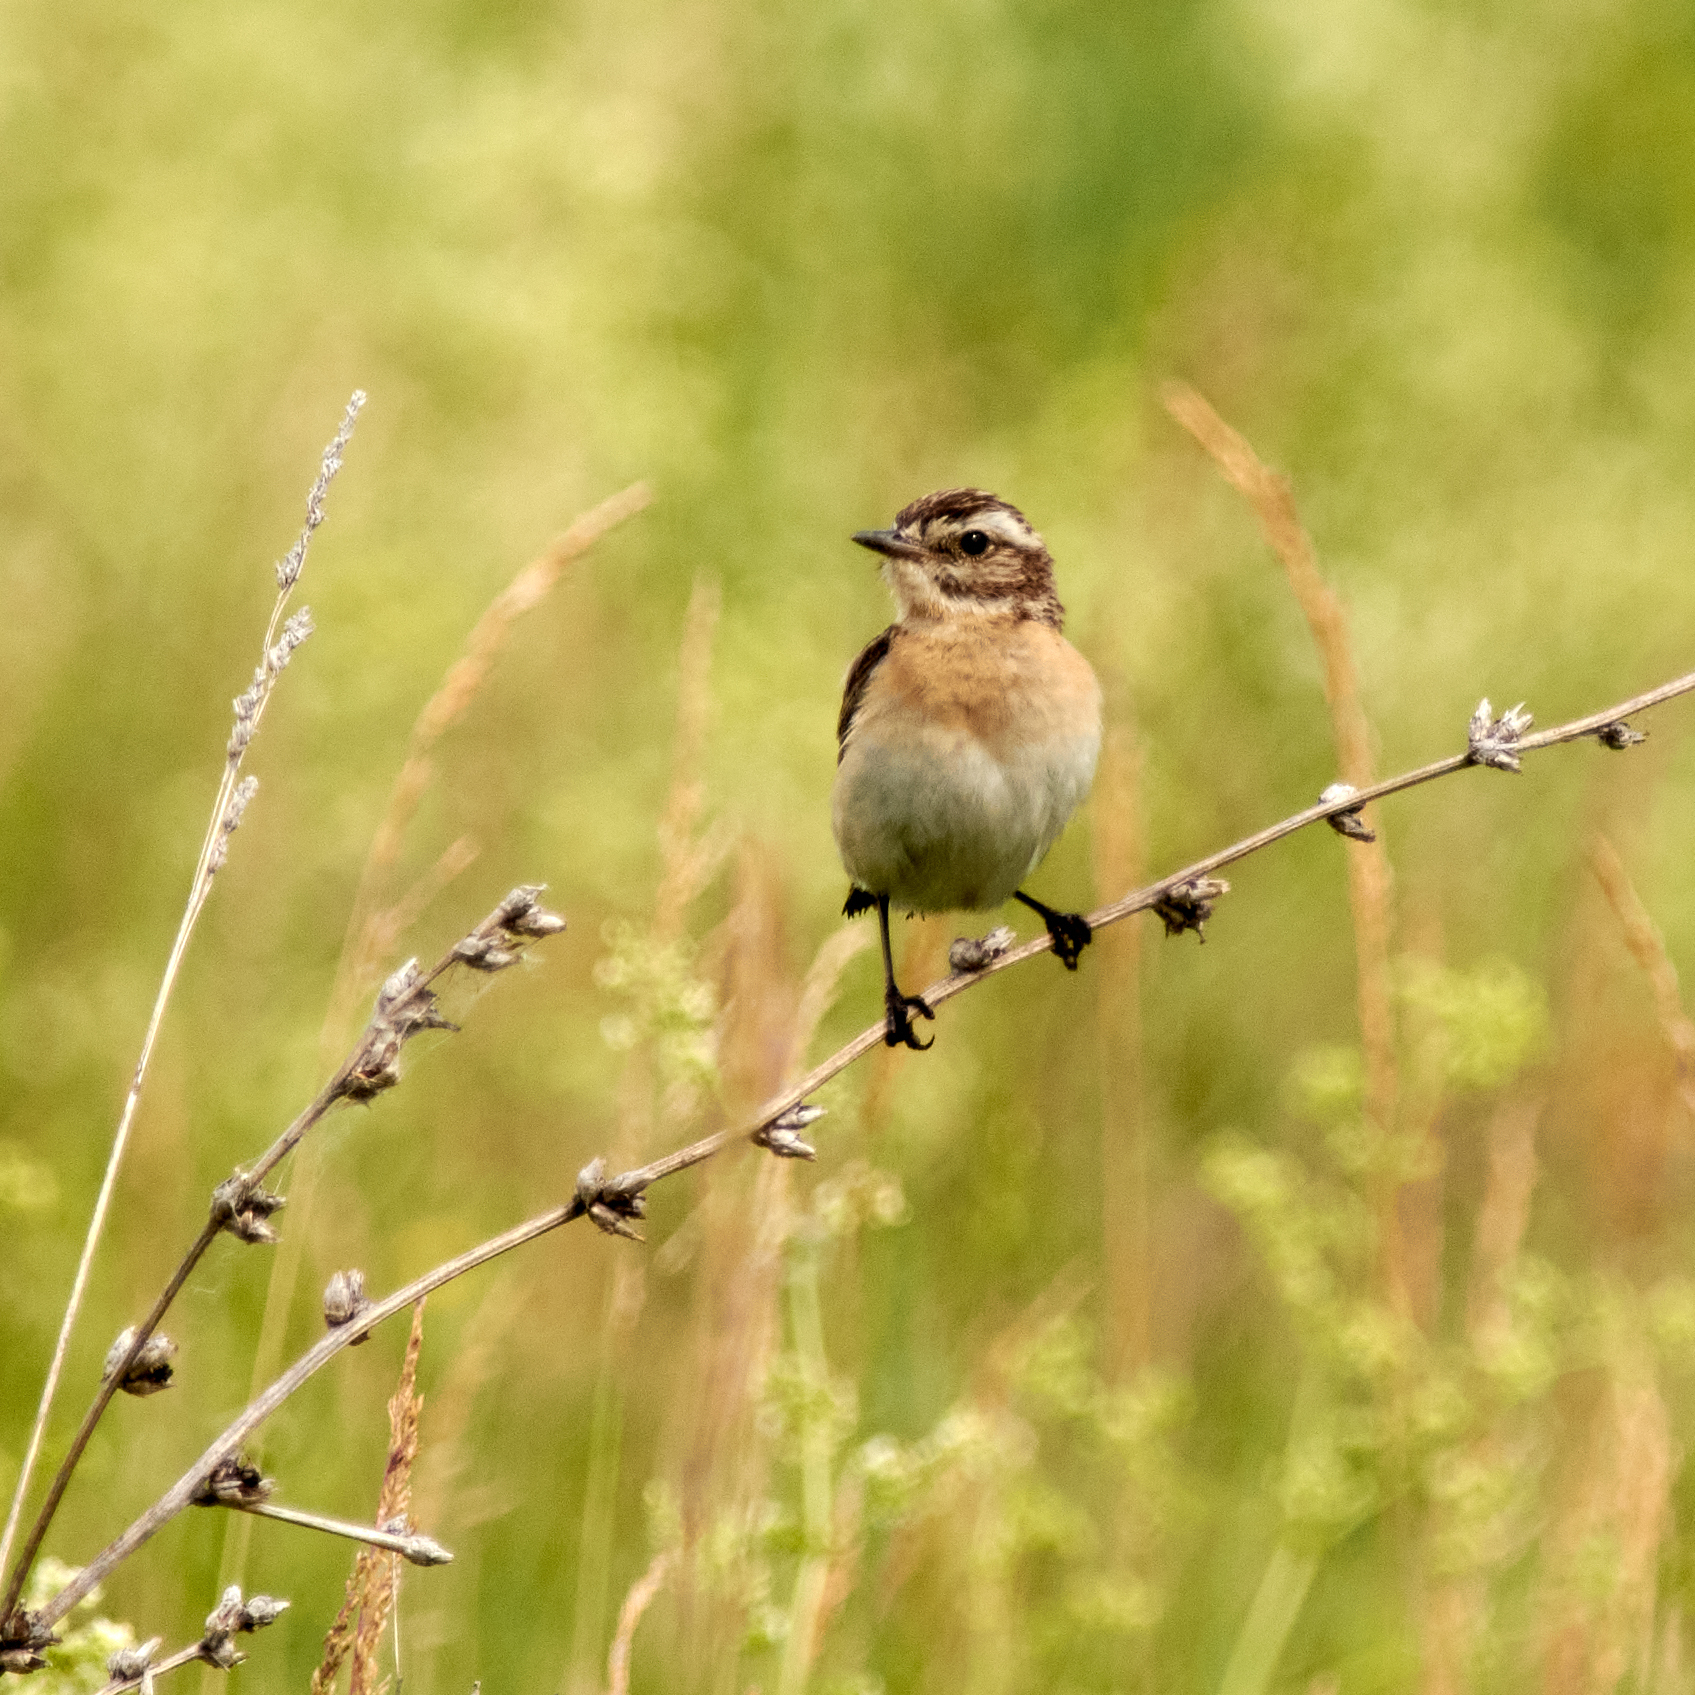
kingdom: Animalia
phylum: Chordata
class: Aves
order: Passeriformes
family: Muscicapidae
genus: Saxicola
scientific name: Saxicola rubetra
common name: Whinchat
